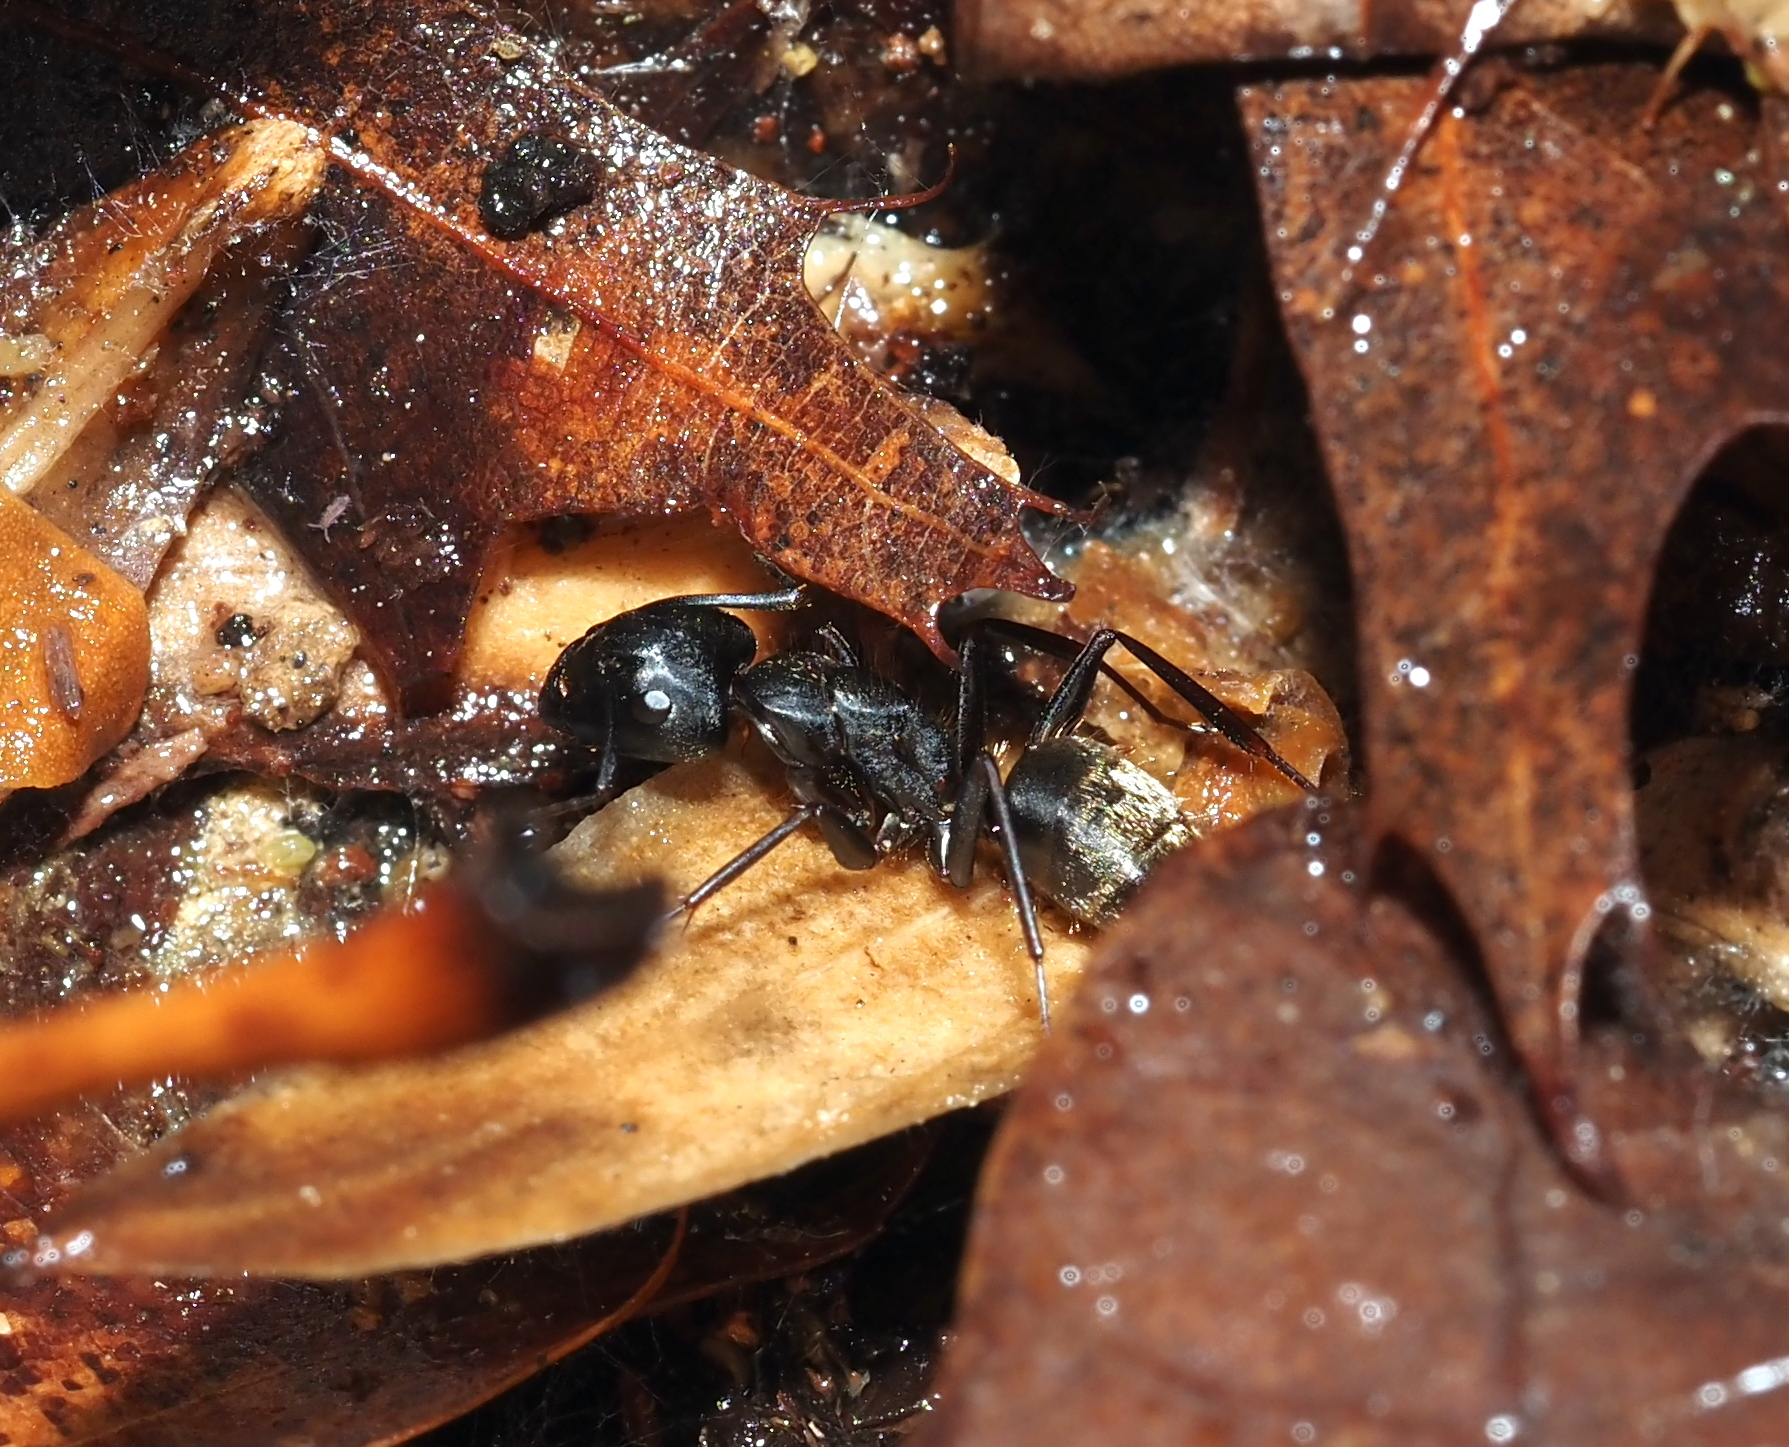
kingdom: Animalia
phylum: Arthropoda
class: Insecta
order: Hymenoptera
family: Formicidae
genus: Camponotus
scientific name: Camponotus pennsylvanicus
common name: Black carpenter ant
